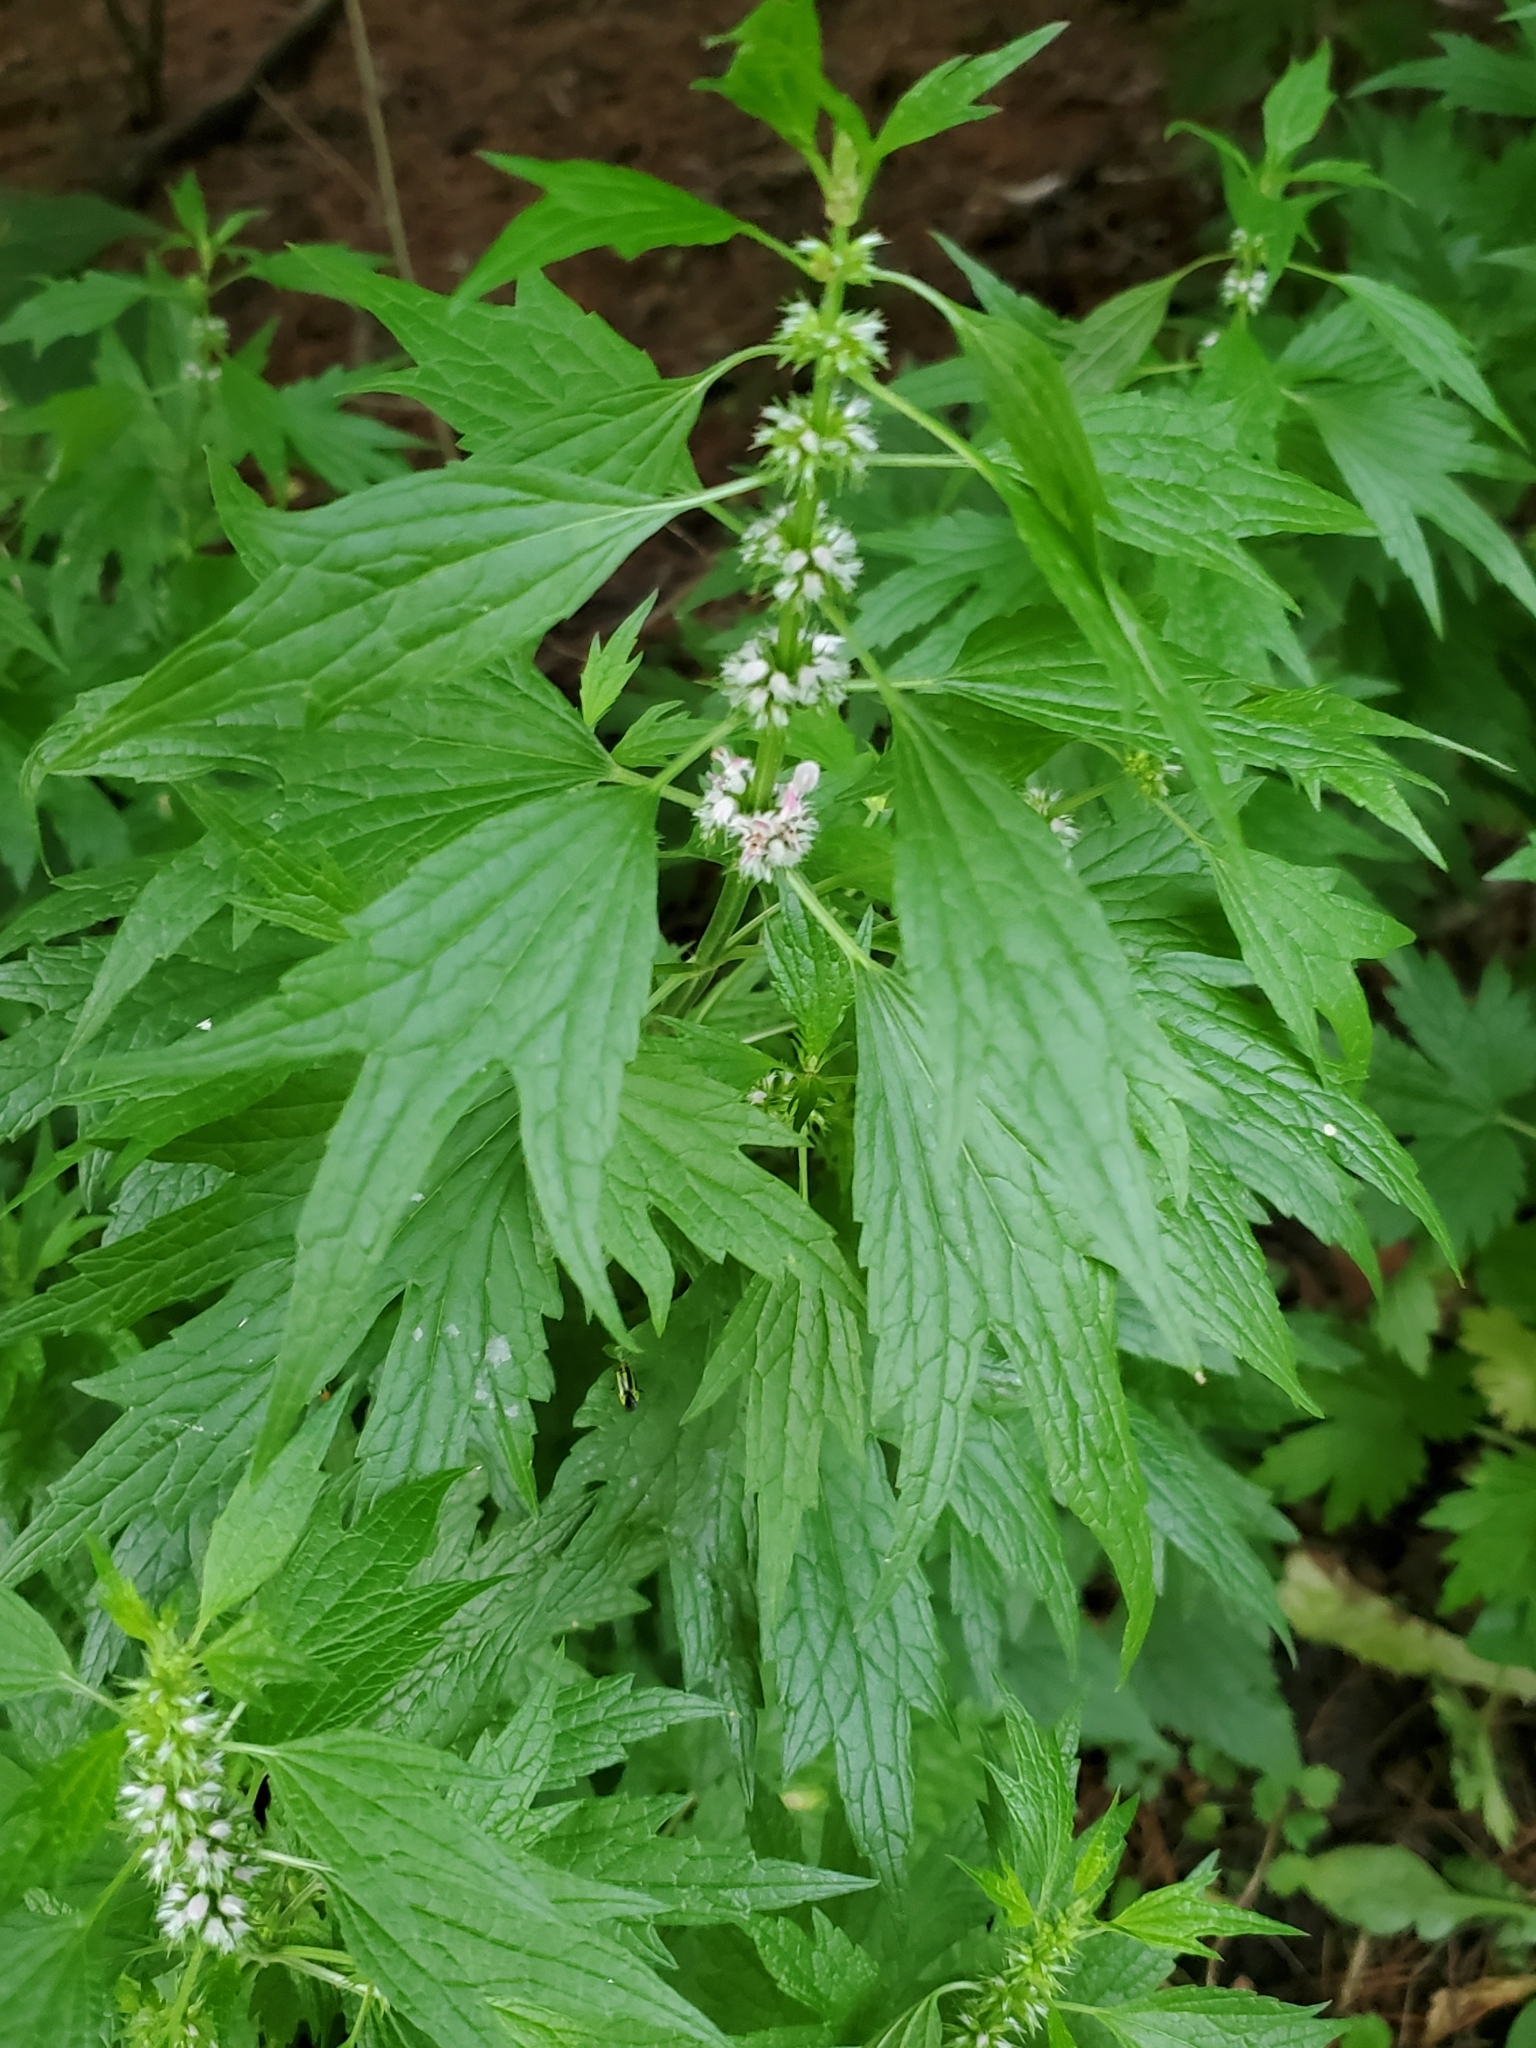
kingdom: Plantae
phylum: Tracheophyta
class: Magnoliopsida
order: Lamiales
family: Lamiaceae
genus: Leonurus
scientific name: Leonurus cardiaca
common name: Motherwort
